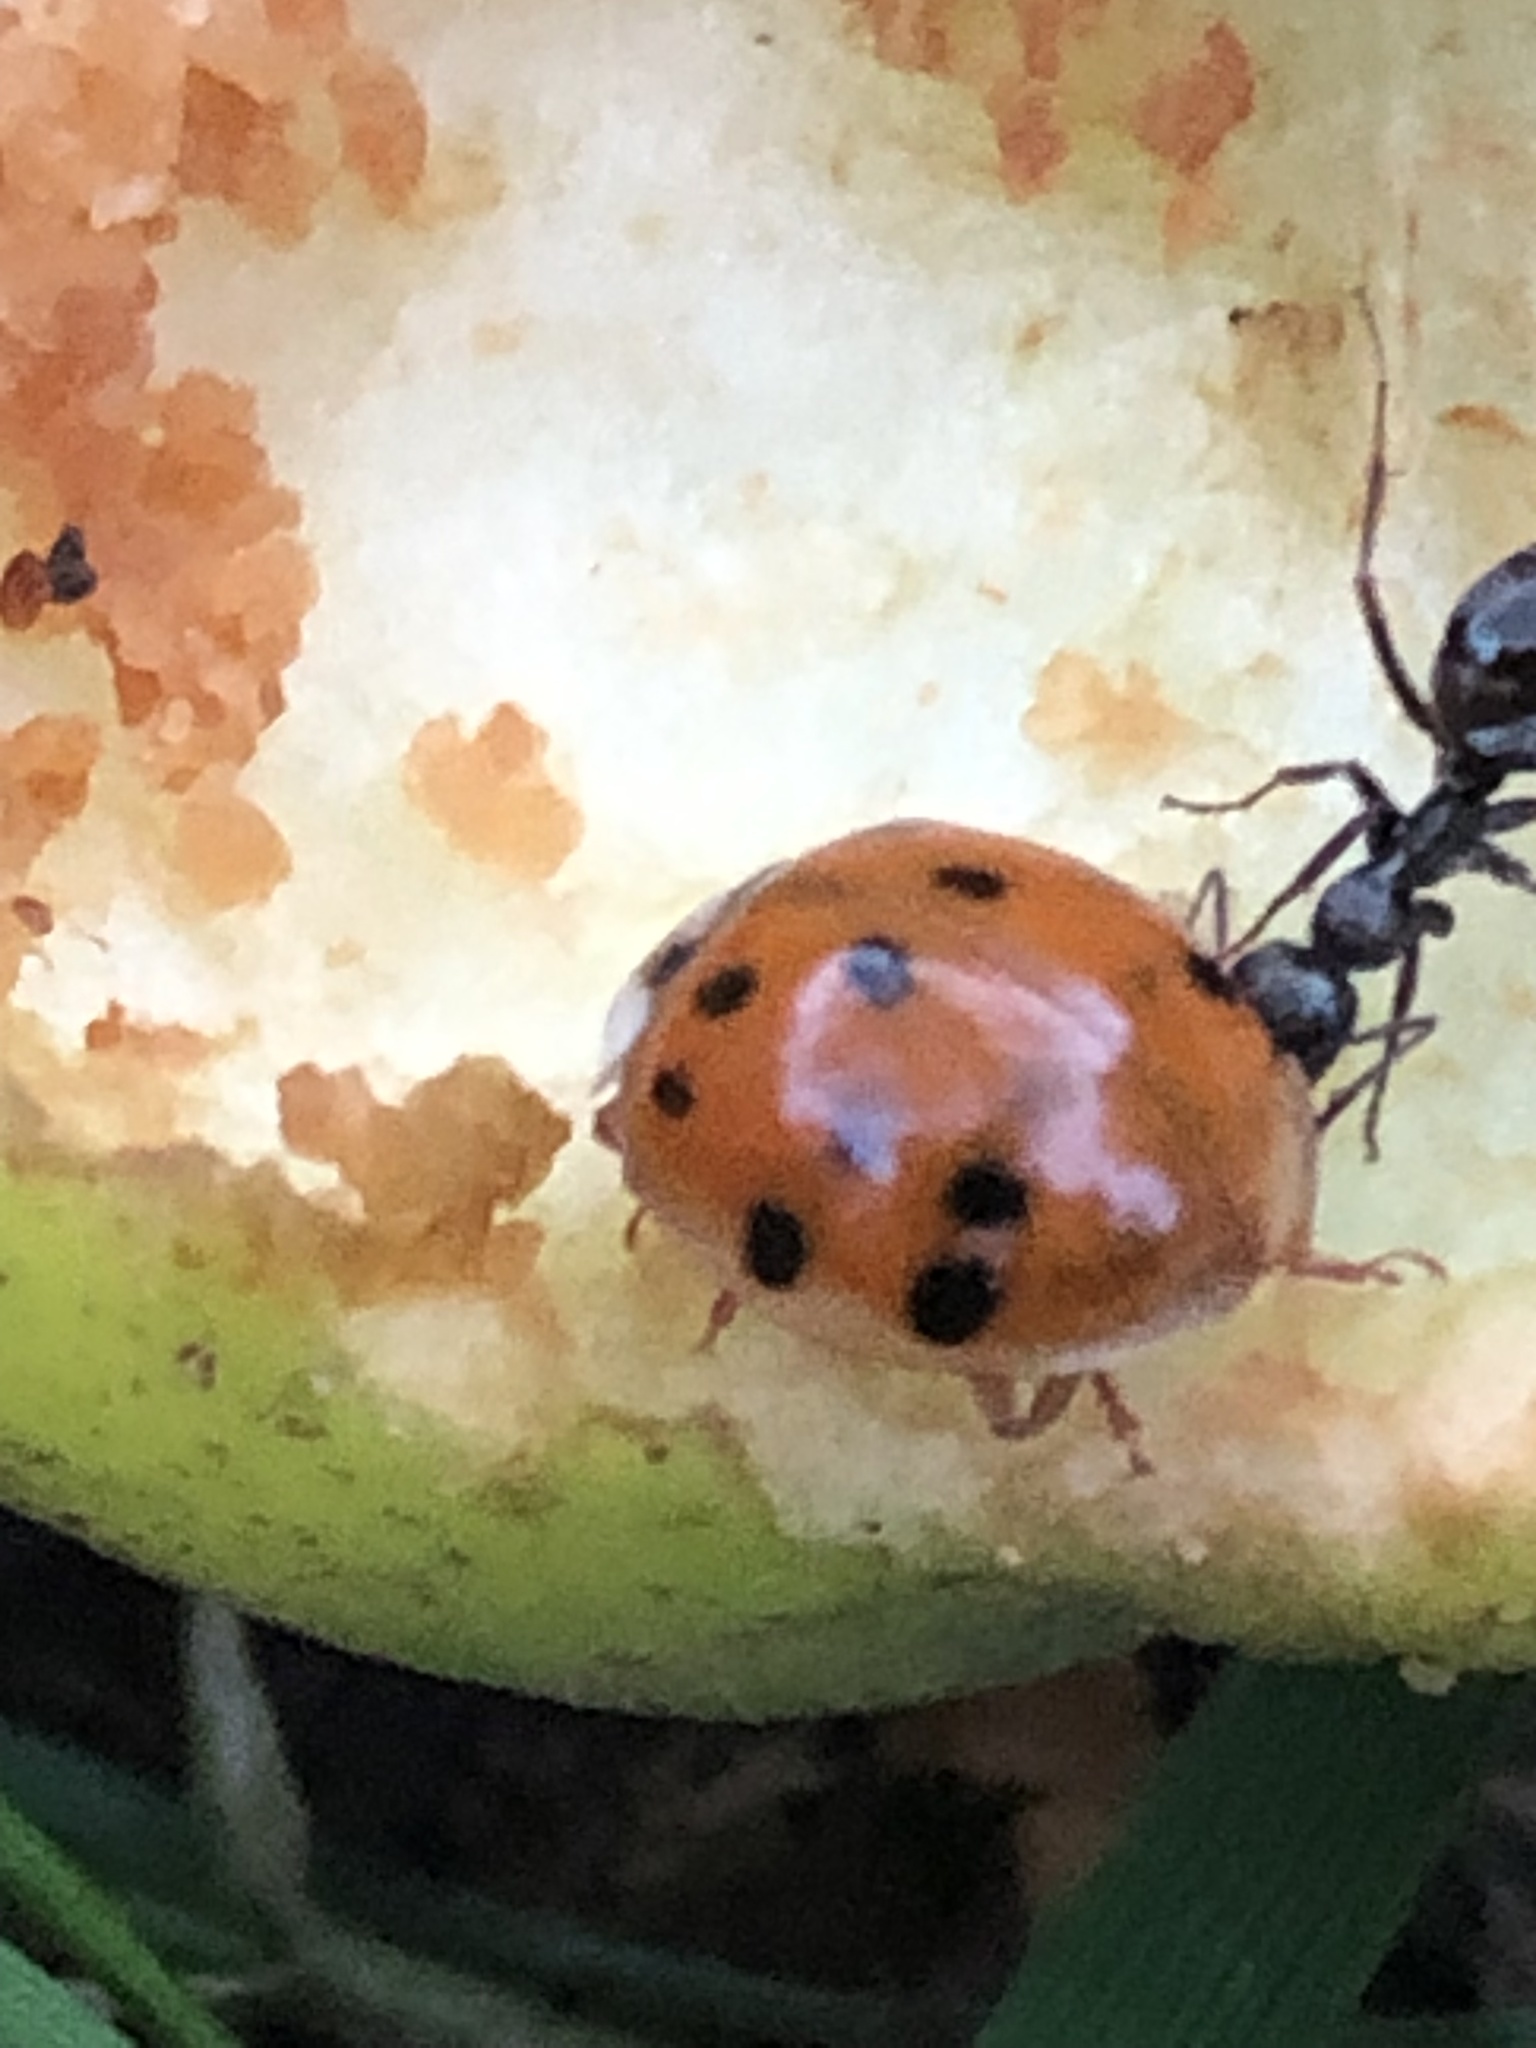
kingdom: Animalia
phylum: Arthropoda
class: Insecta
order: Coleoptera
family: Coccinellidae
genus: Harmonia
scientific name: Harmonia axyridis
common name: Harlequin ladybird
